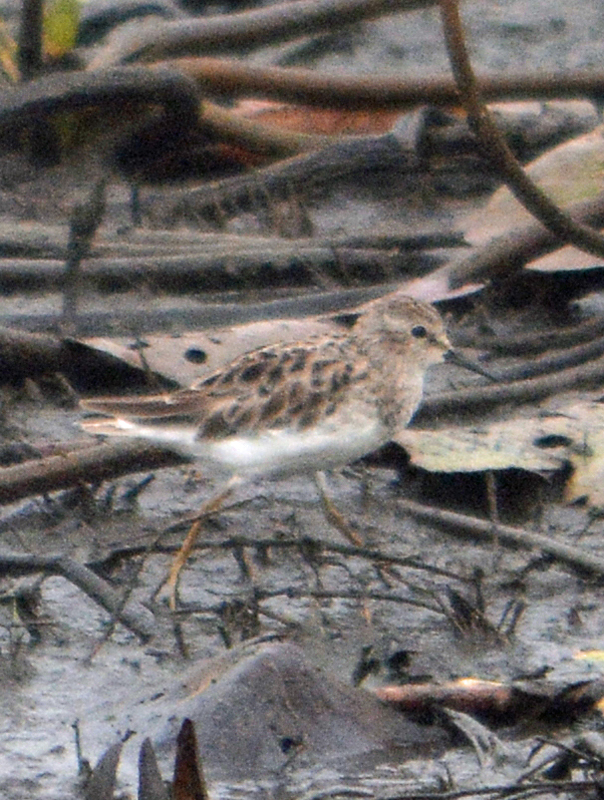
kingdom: Animalia
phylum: Chordata
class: Aves
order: Charadriiformes
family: Scolopacidae
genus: Calidris
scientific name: Calidris minutilla
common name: Least sandpiper
